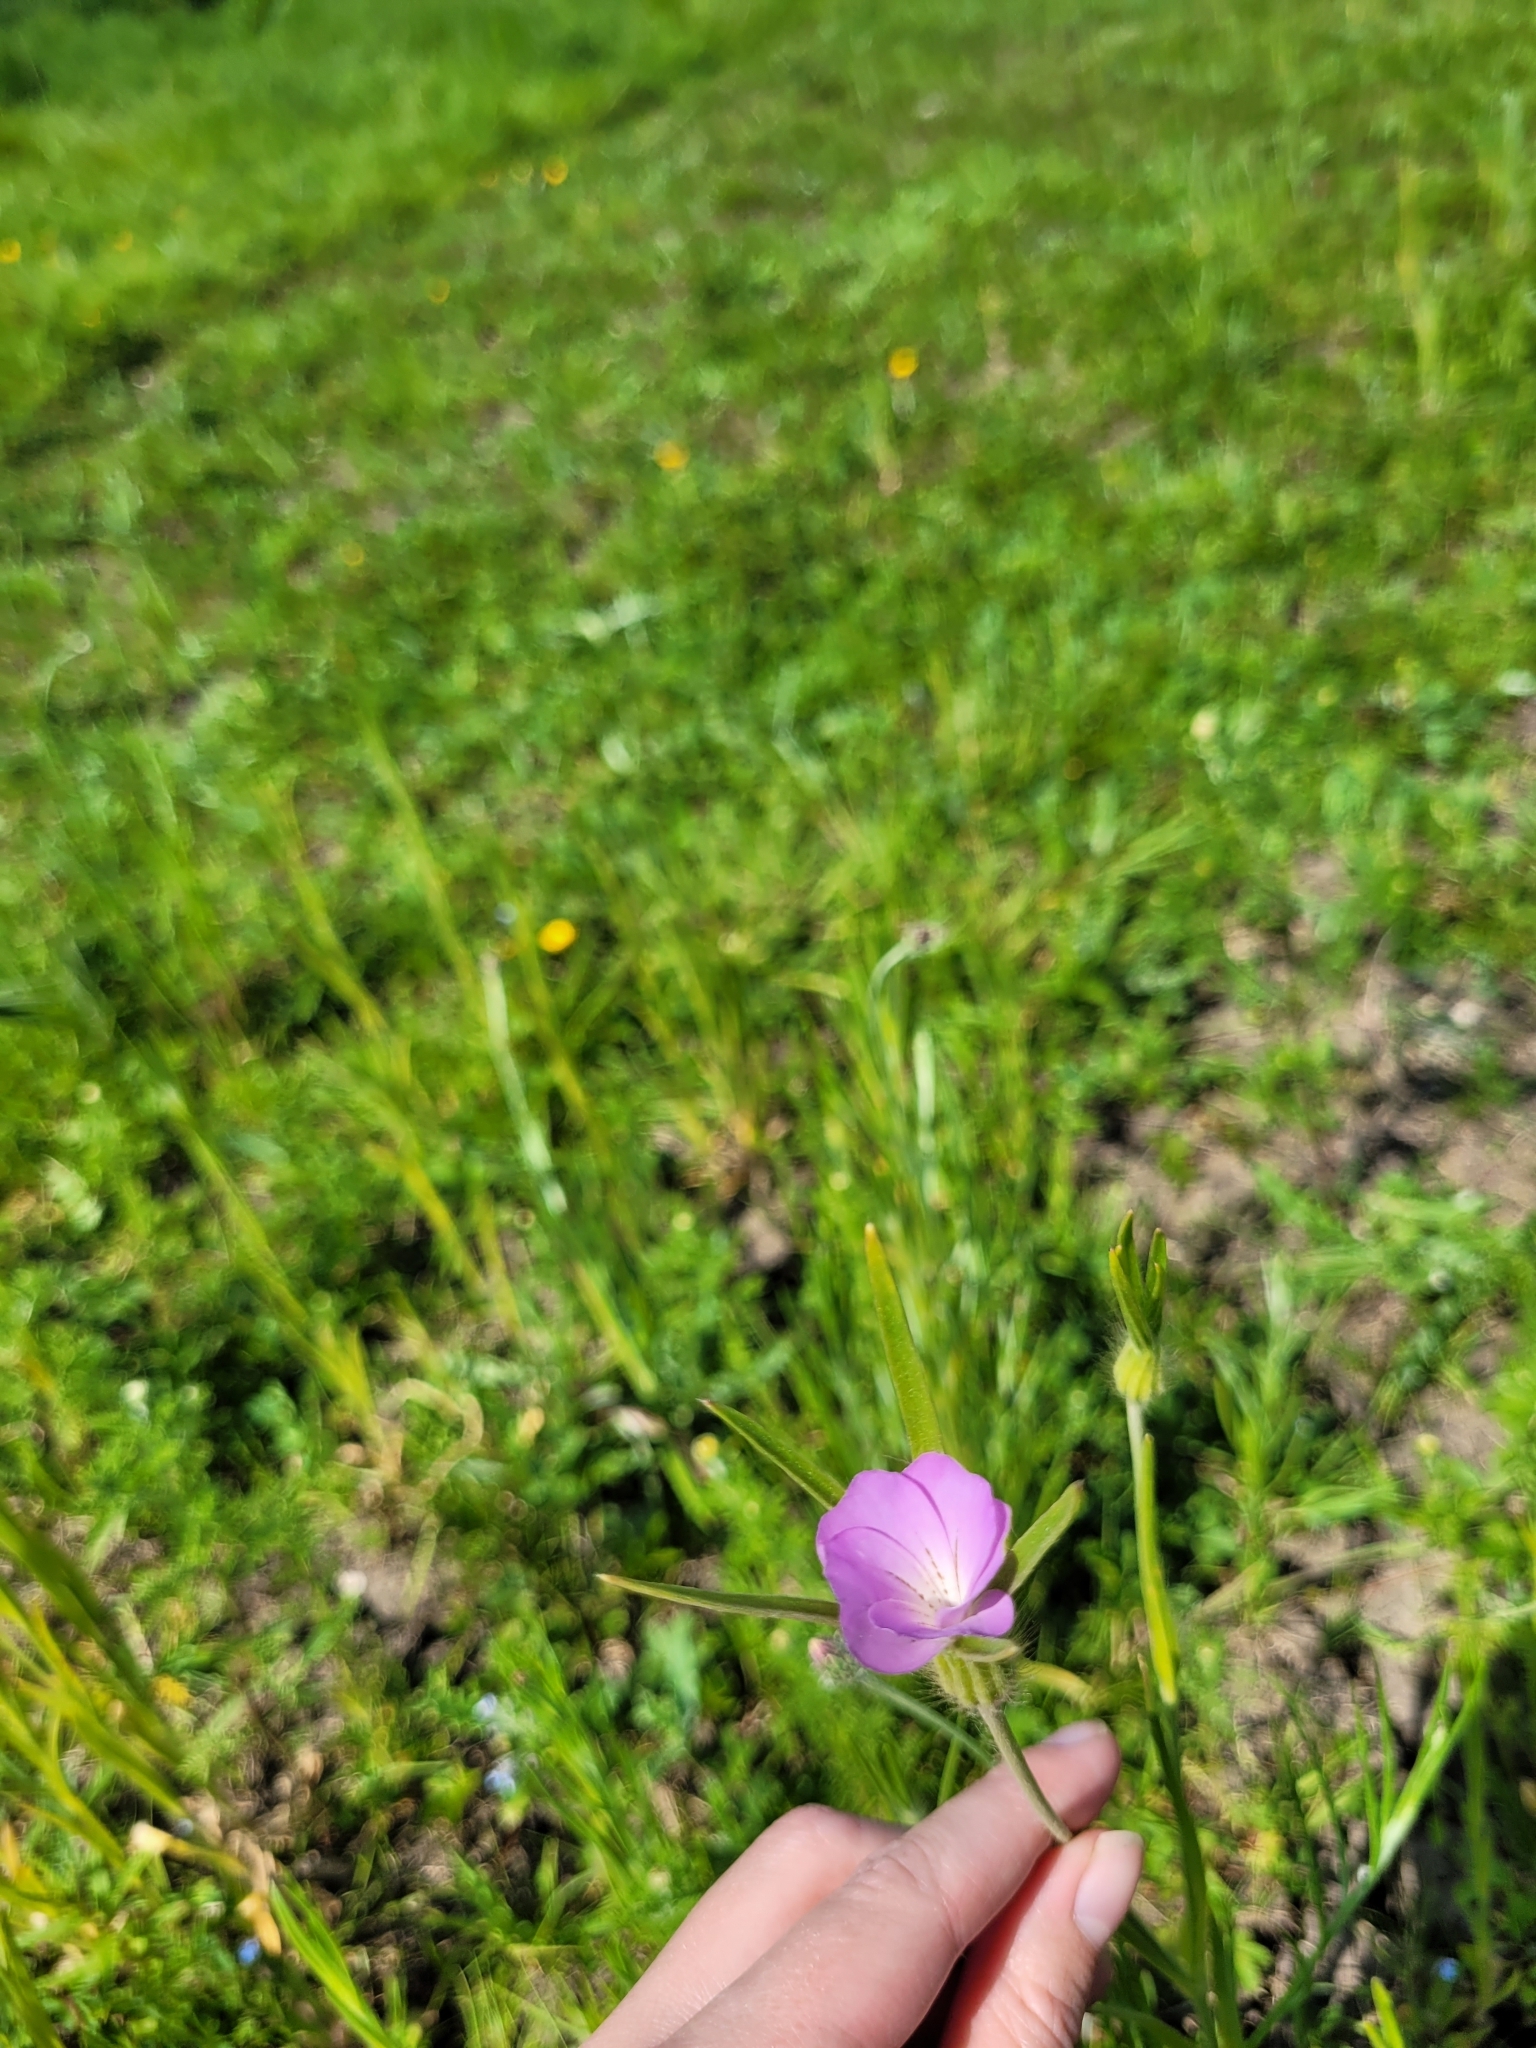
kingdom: Plantae
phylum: Tracheophyta
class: Magnoliopsida
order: Caryophyllales
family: Caryophyllaceae
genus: Agrostemma
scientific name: Agrostemma githago
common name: Common corncockle
